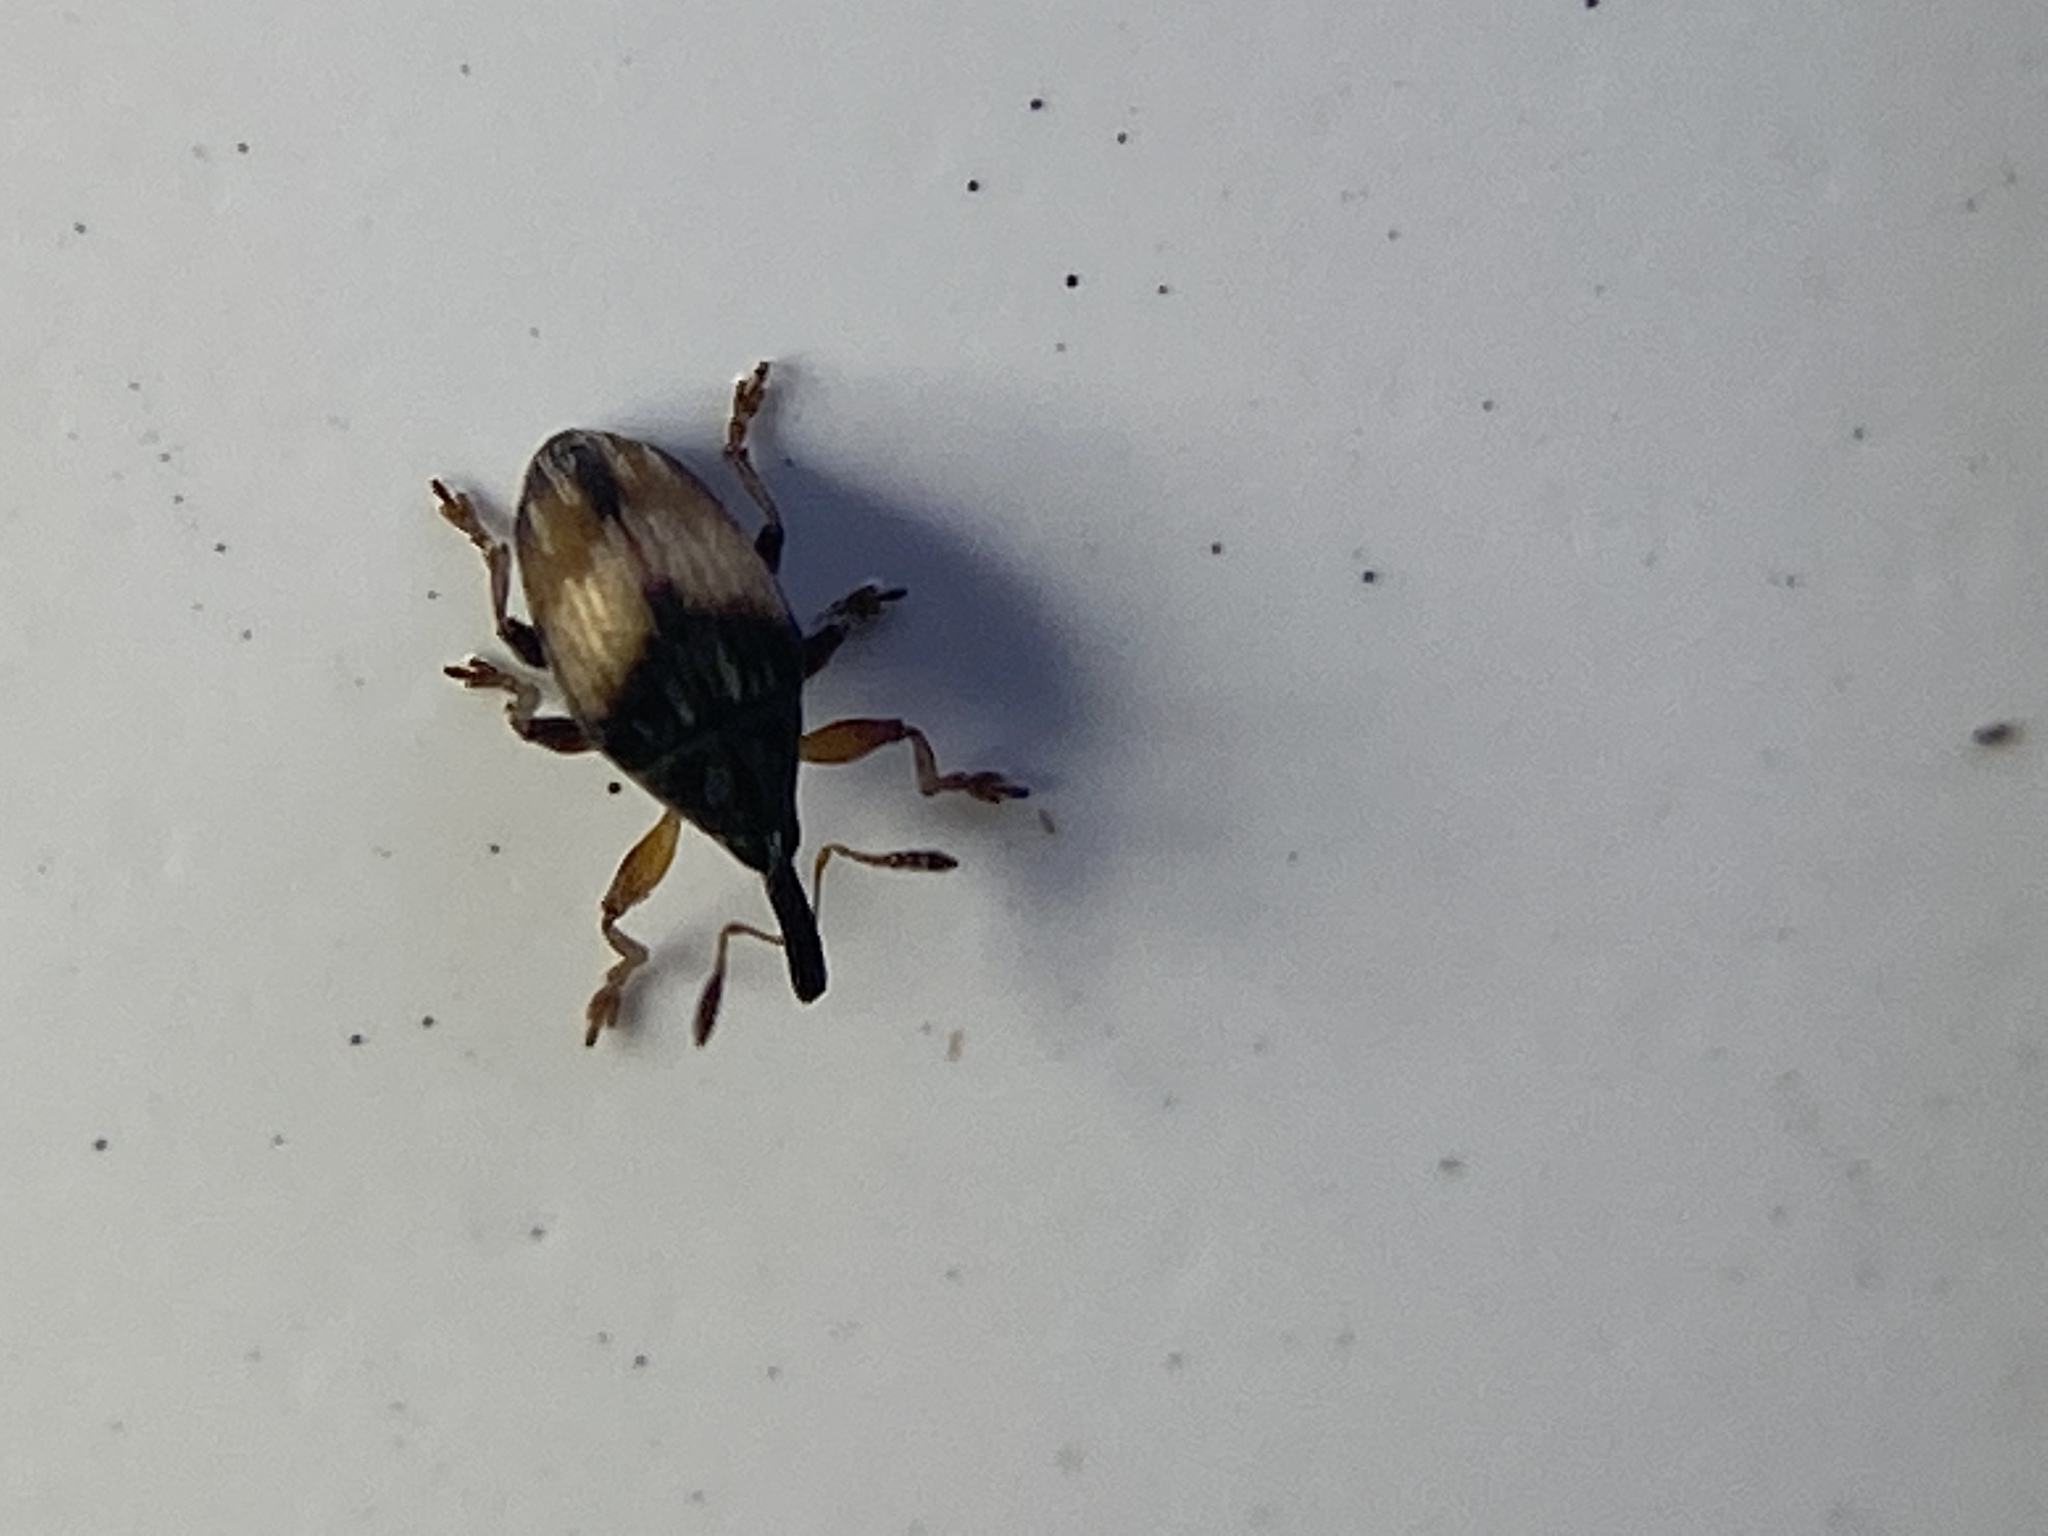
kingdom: Animalia
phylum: Arthropoda
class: Insecta
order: Coleoptera
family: Brentidae
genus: Nanophyes
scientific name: Nanophyes marmoratus
